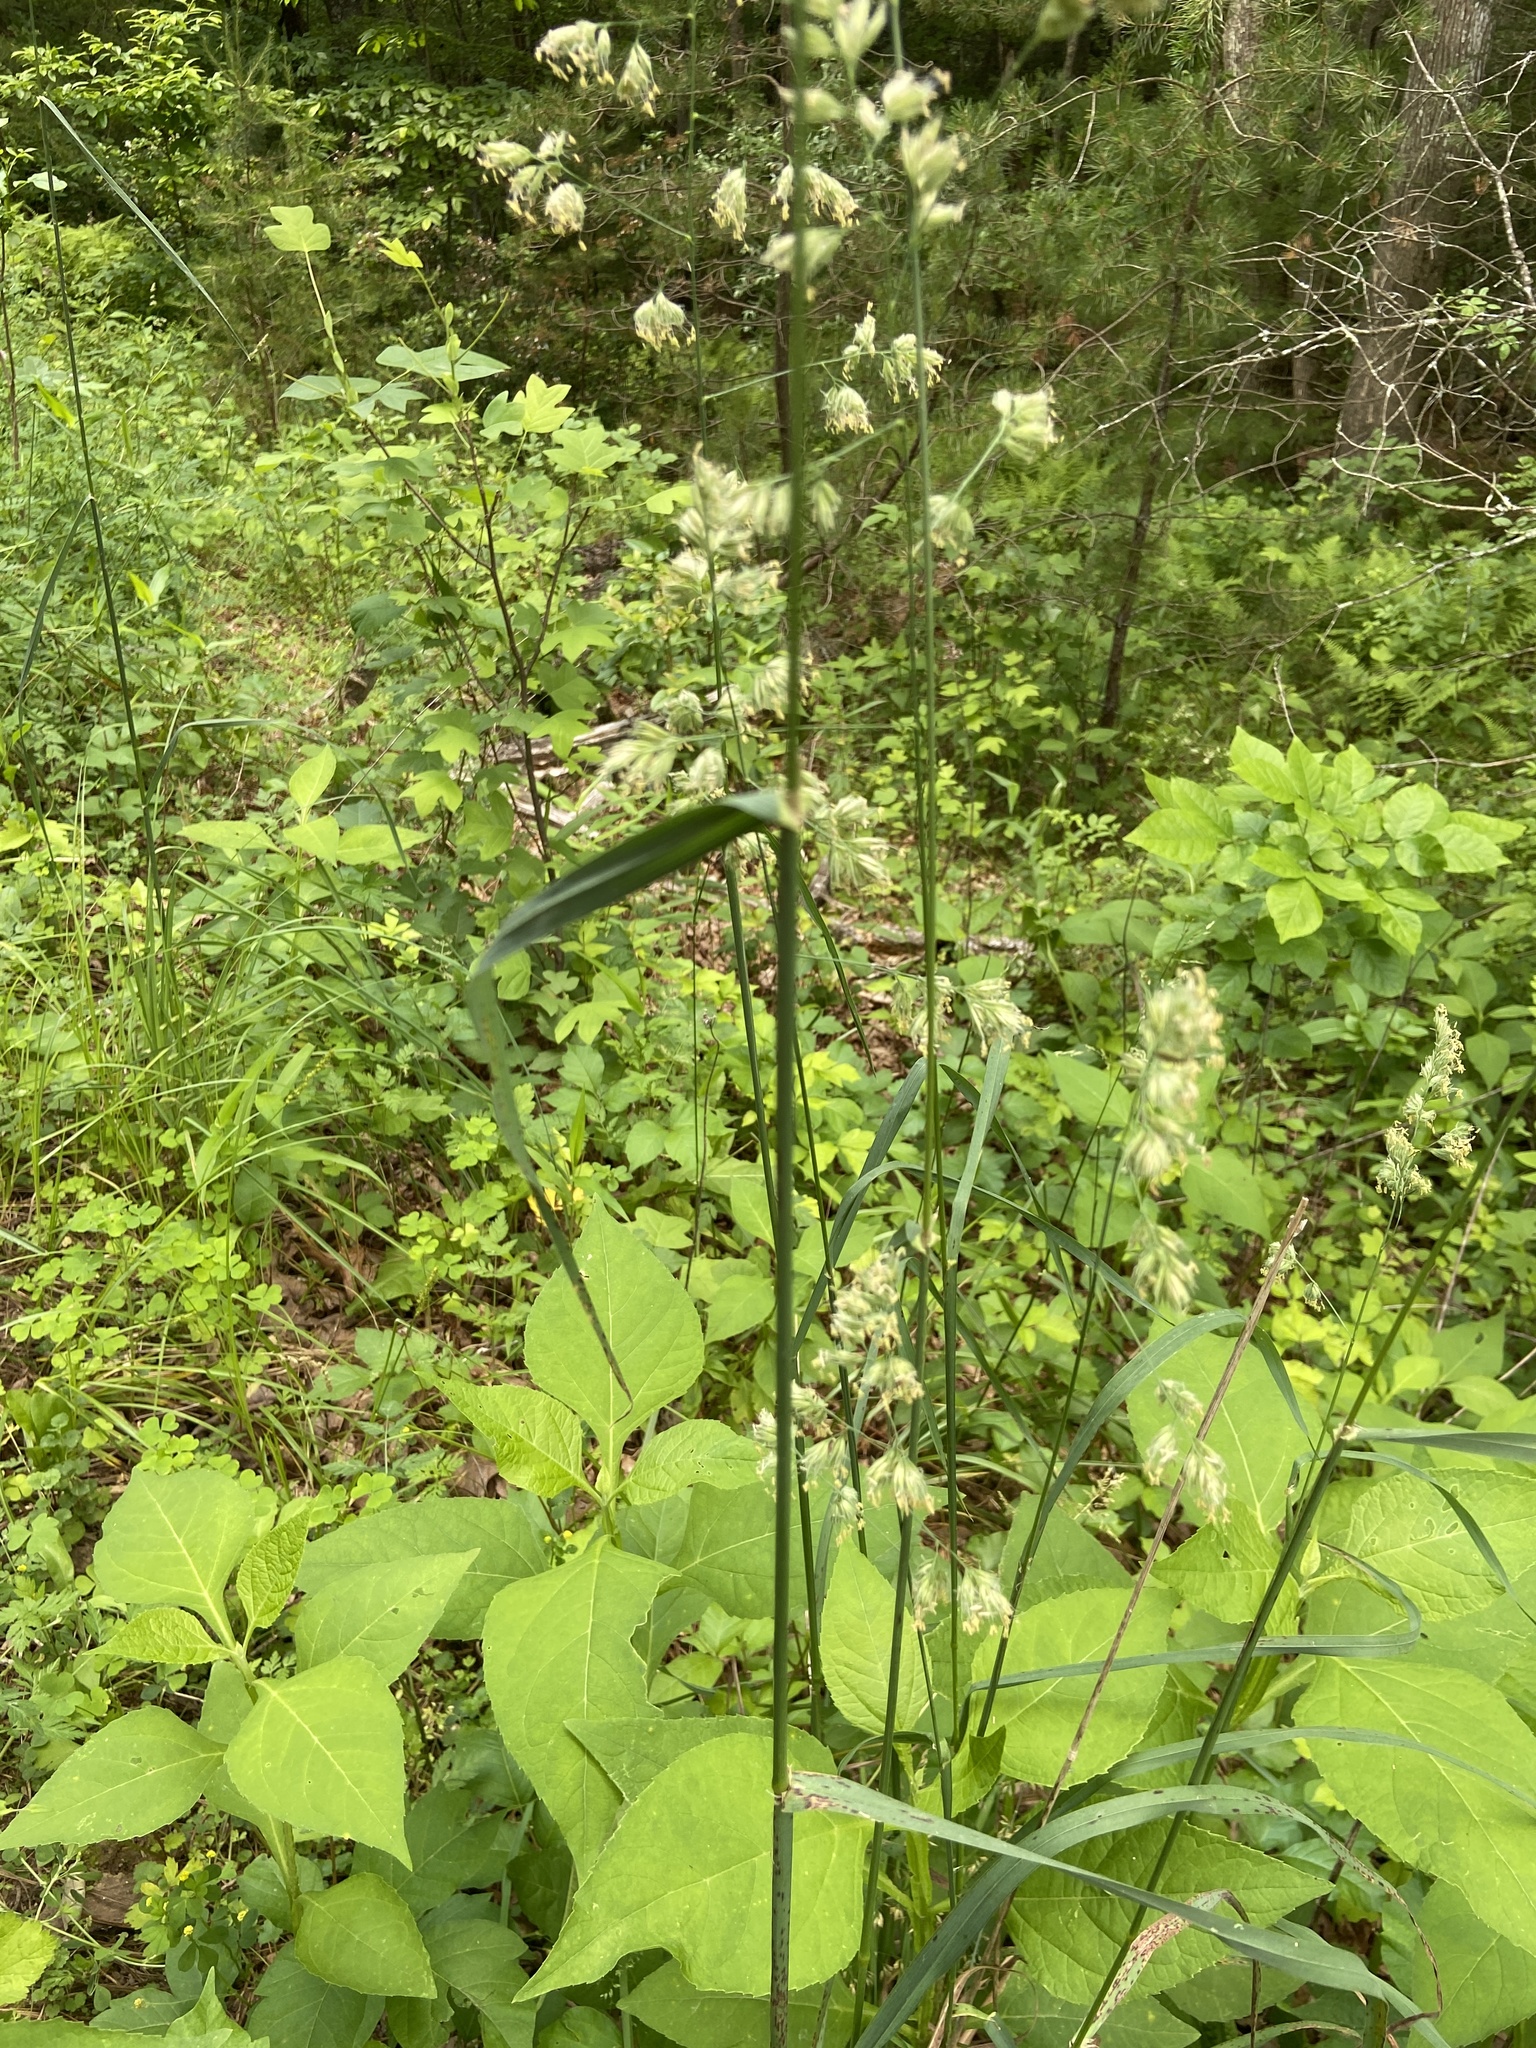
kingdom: Plantae
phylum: Tracheophyta
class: Liliopsida
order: Poales
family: Poaceae
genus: Dactylis
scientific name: Dactylis glomerata
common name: Orchardgrass
